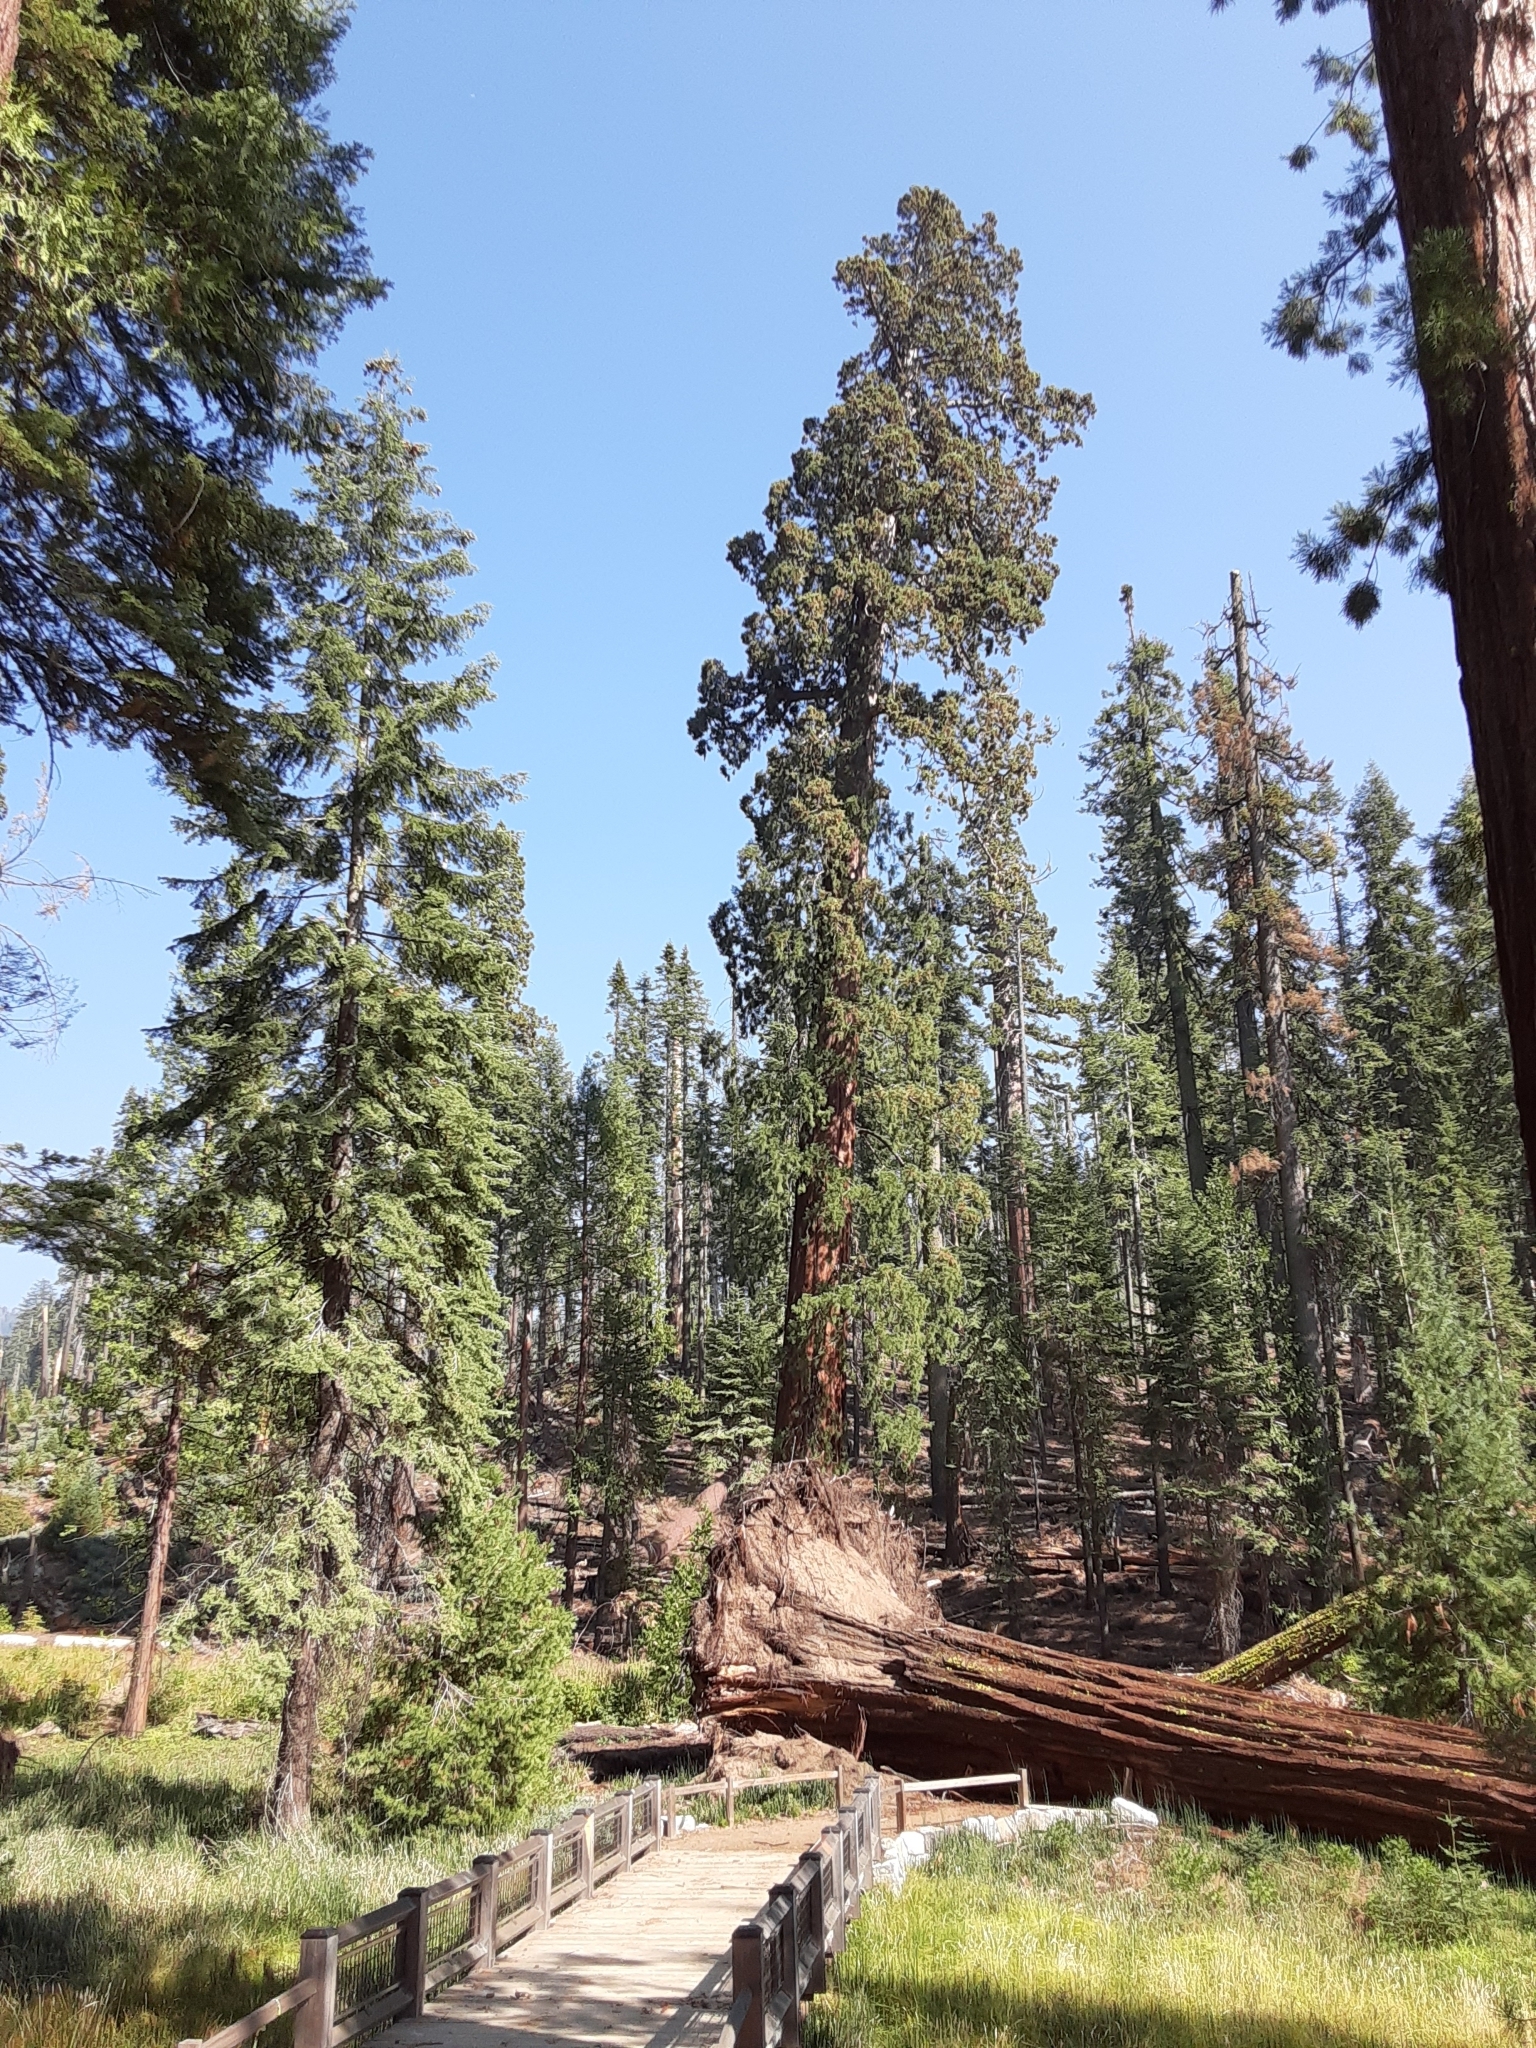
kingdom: Plantae
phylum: Tracheophyta
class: Pinopsida
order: Pinales
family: Cupressaceae
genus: Sequoiadendron
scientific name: Sequoiadendron giganteum
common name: Wellingtonia
